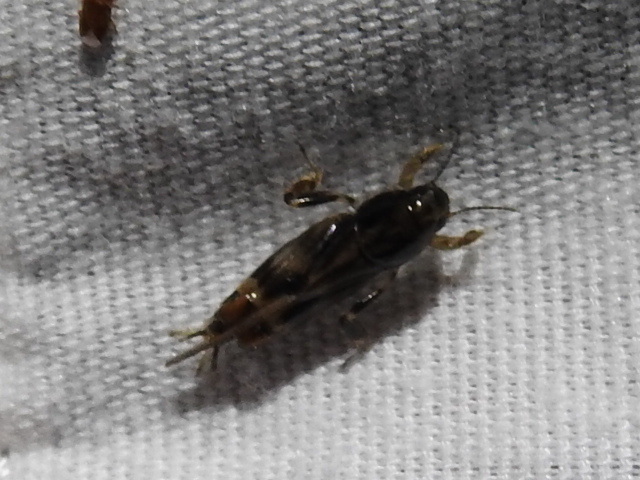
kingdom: Animalia
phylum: Arthropoda
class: Insecta
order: Orthoptera
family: Tridactylidae
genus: Neotridactylus
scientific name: Neotridactylus apicialis
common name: Larger pygmy locust
